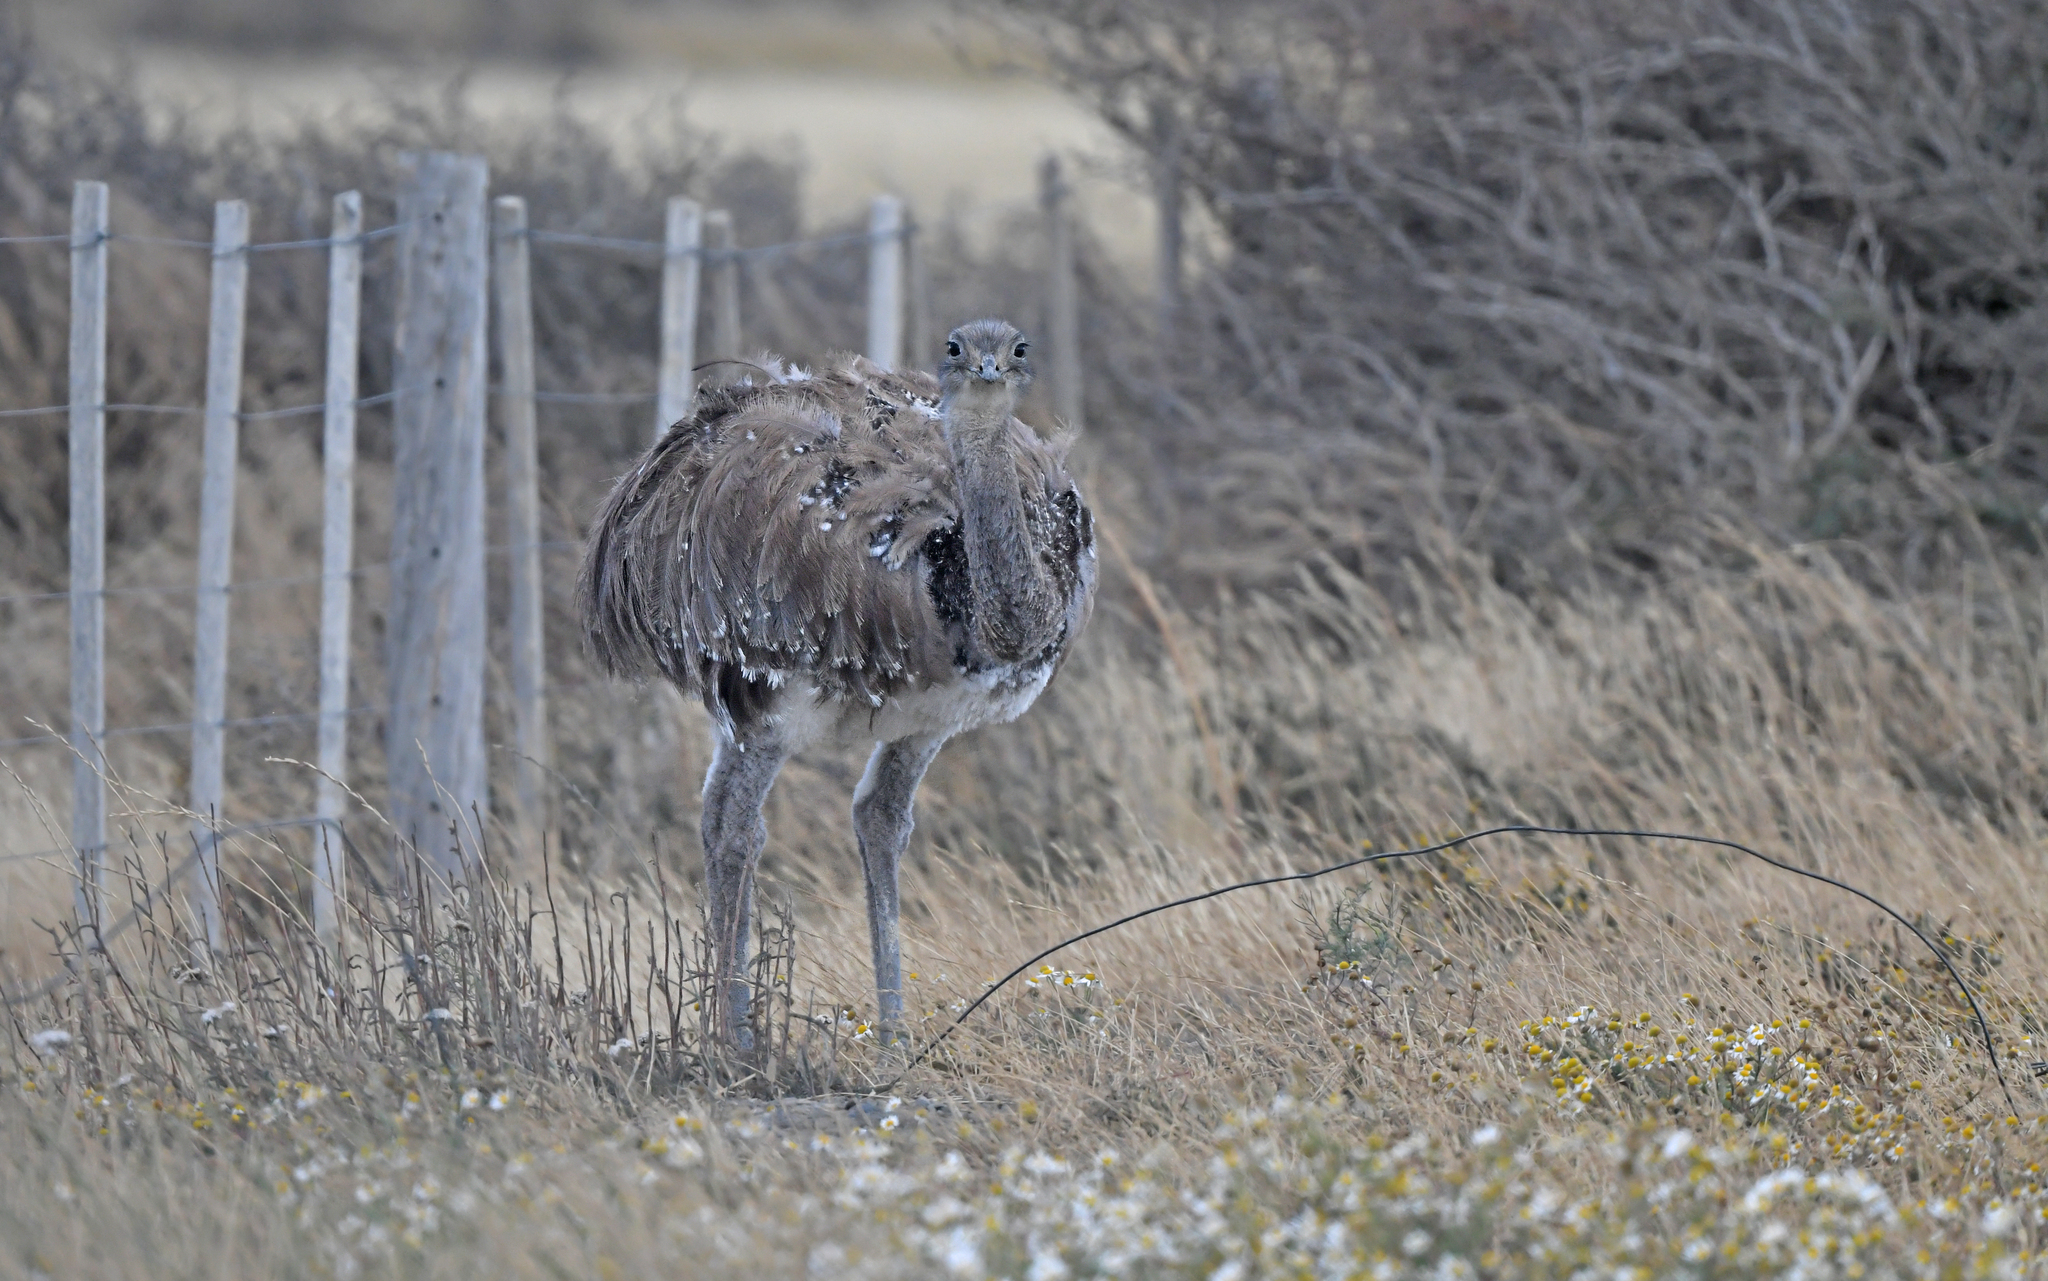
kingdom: Animalia
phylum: Chordata
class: Aves
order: Rheiformes
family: Rheidae
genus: Rhea
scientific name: Rhea pennata
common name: Lesser rhea
